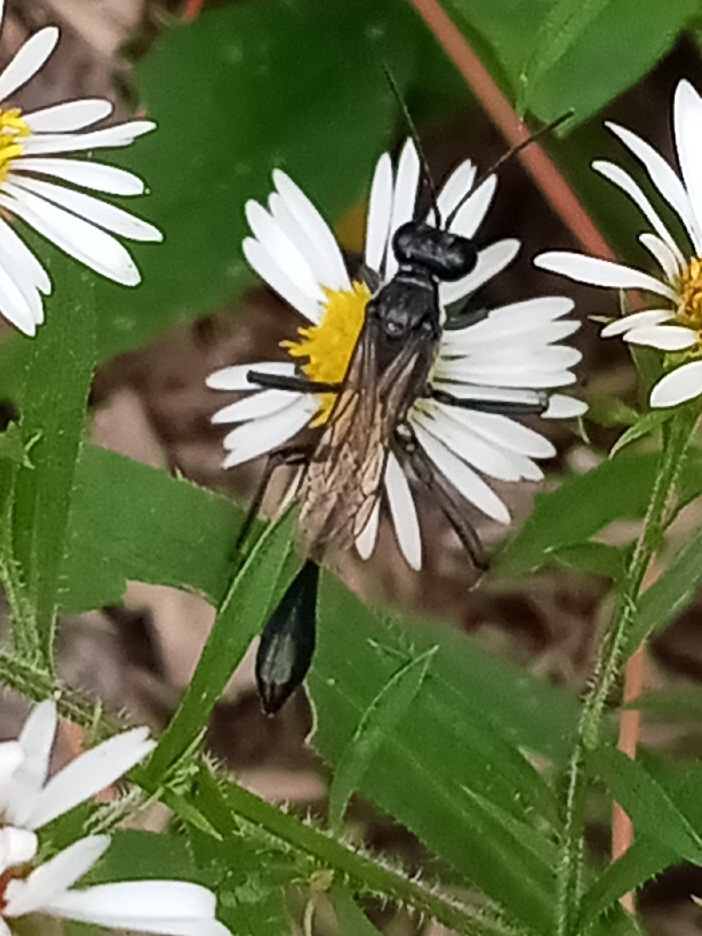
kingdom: Animalia
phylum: Arthropoda
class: Insecta
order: Hymenoptera
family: Sphecidae
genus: Eremnophila
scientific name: Eremnophila aureonotata
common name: Gold-marked thread-waisted wasp
